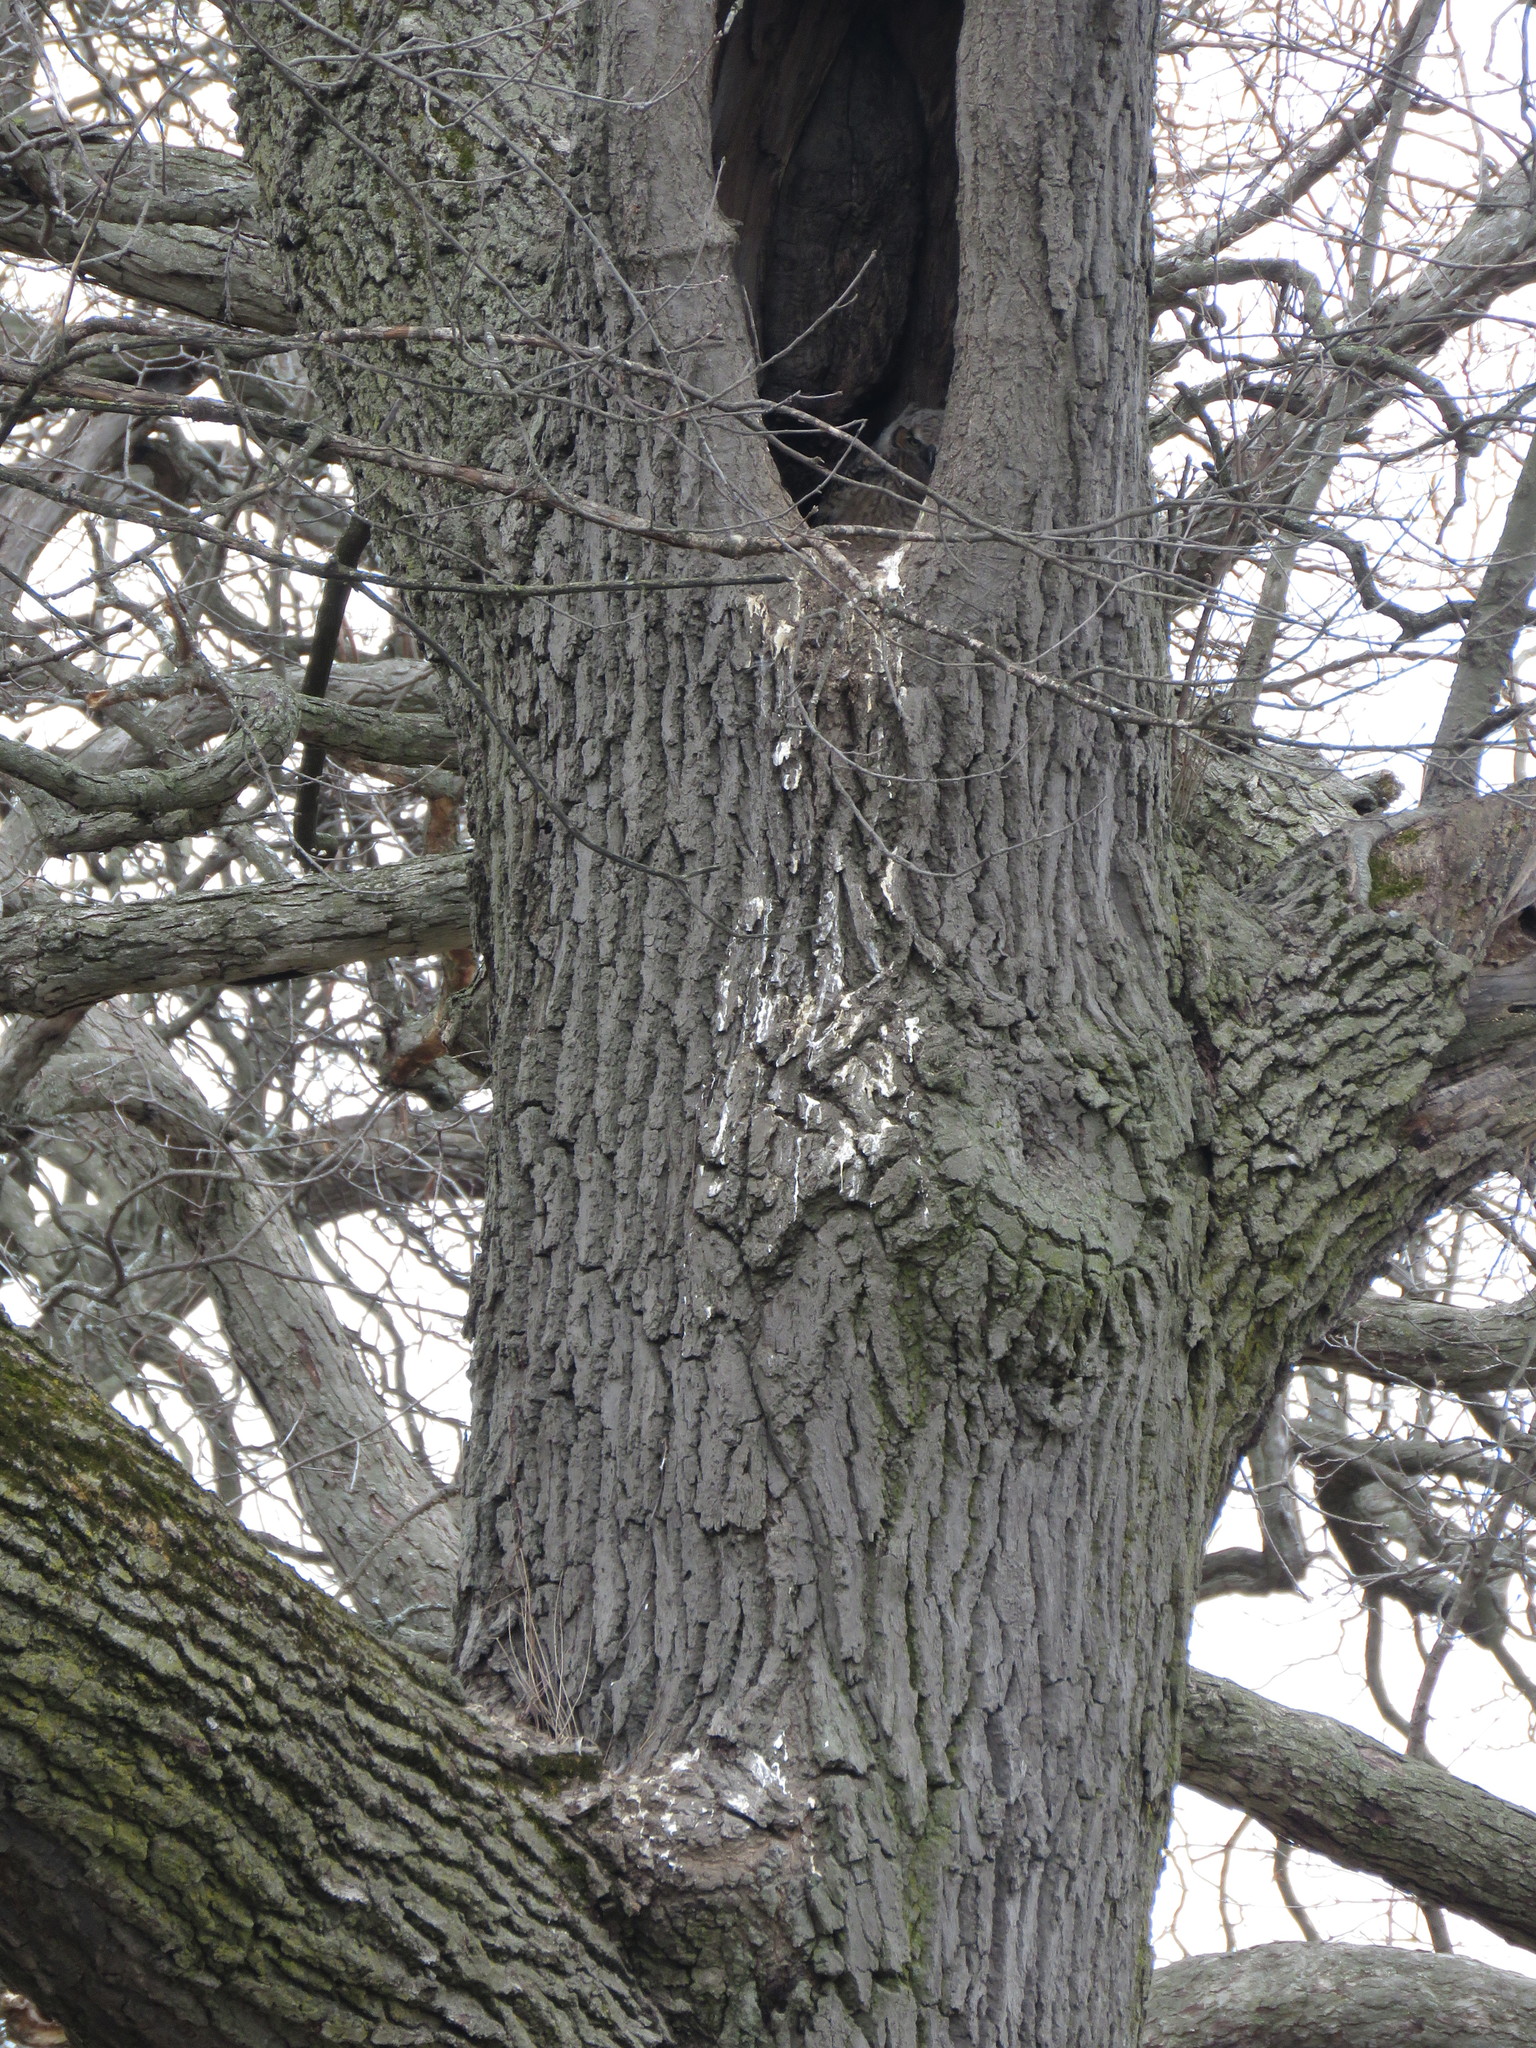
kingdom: Animalia
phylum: Chordata
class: Aves
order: Strigiformes
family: Strigidae
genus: Bubo
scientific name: Bubo virginianus
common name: Great horned owl
